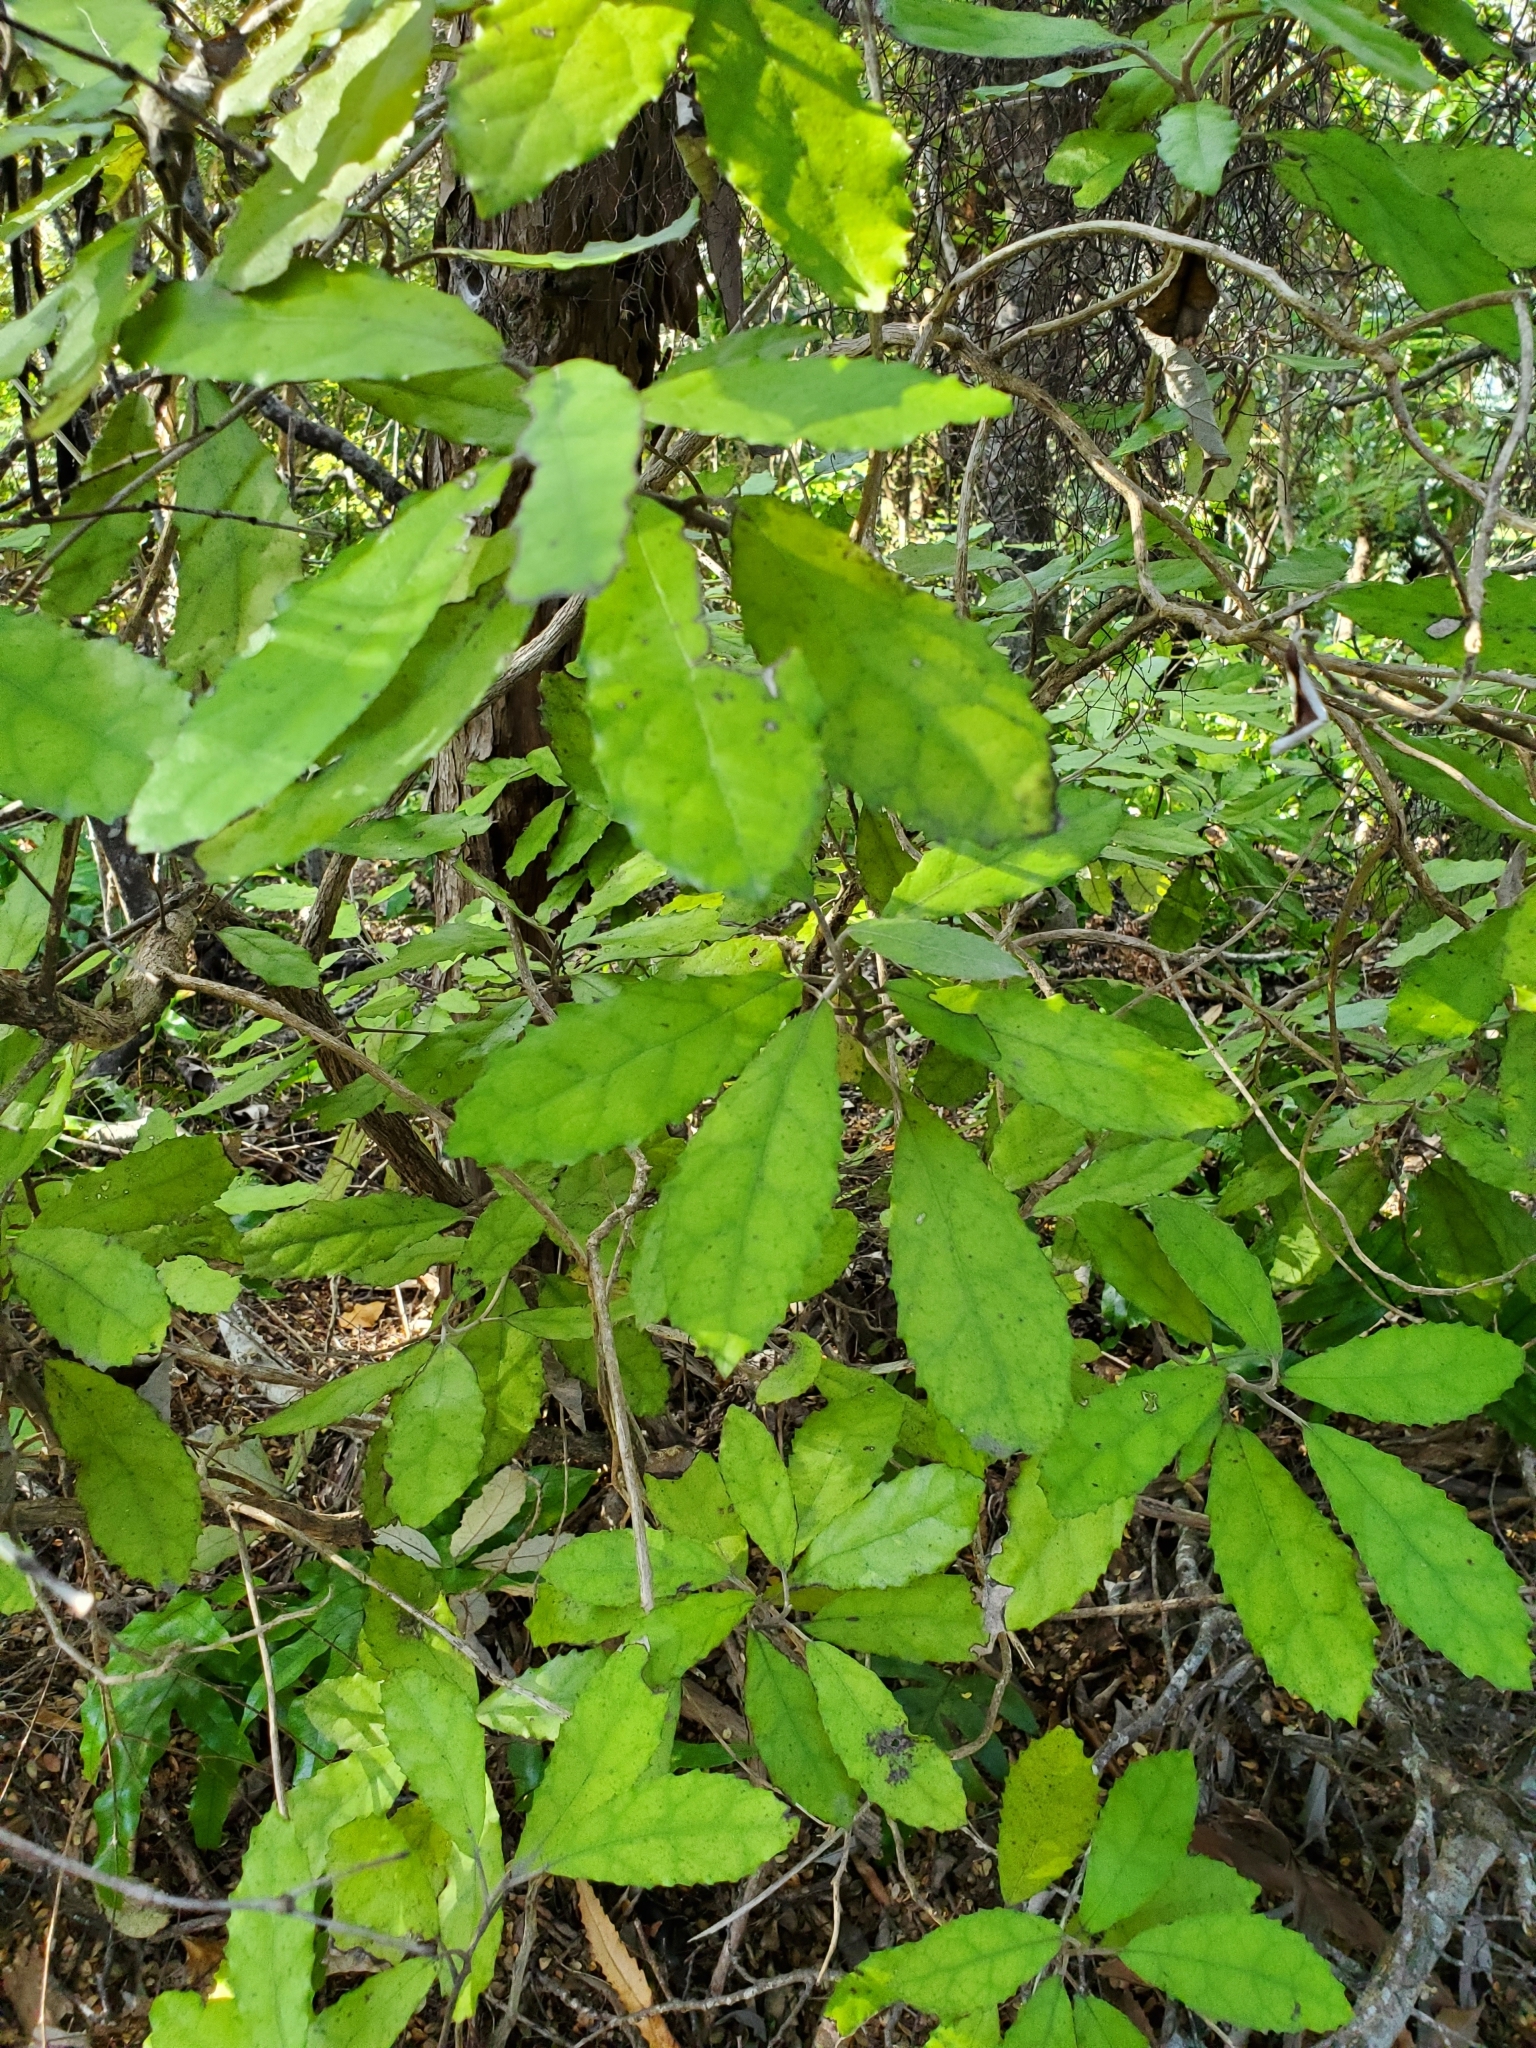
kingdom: Plantae
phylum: Tracheophyta
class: Magnoliopsida
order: Asterales
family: Asteraceae
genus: Olearia
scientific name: Olearia rani
